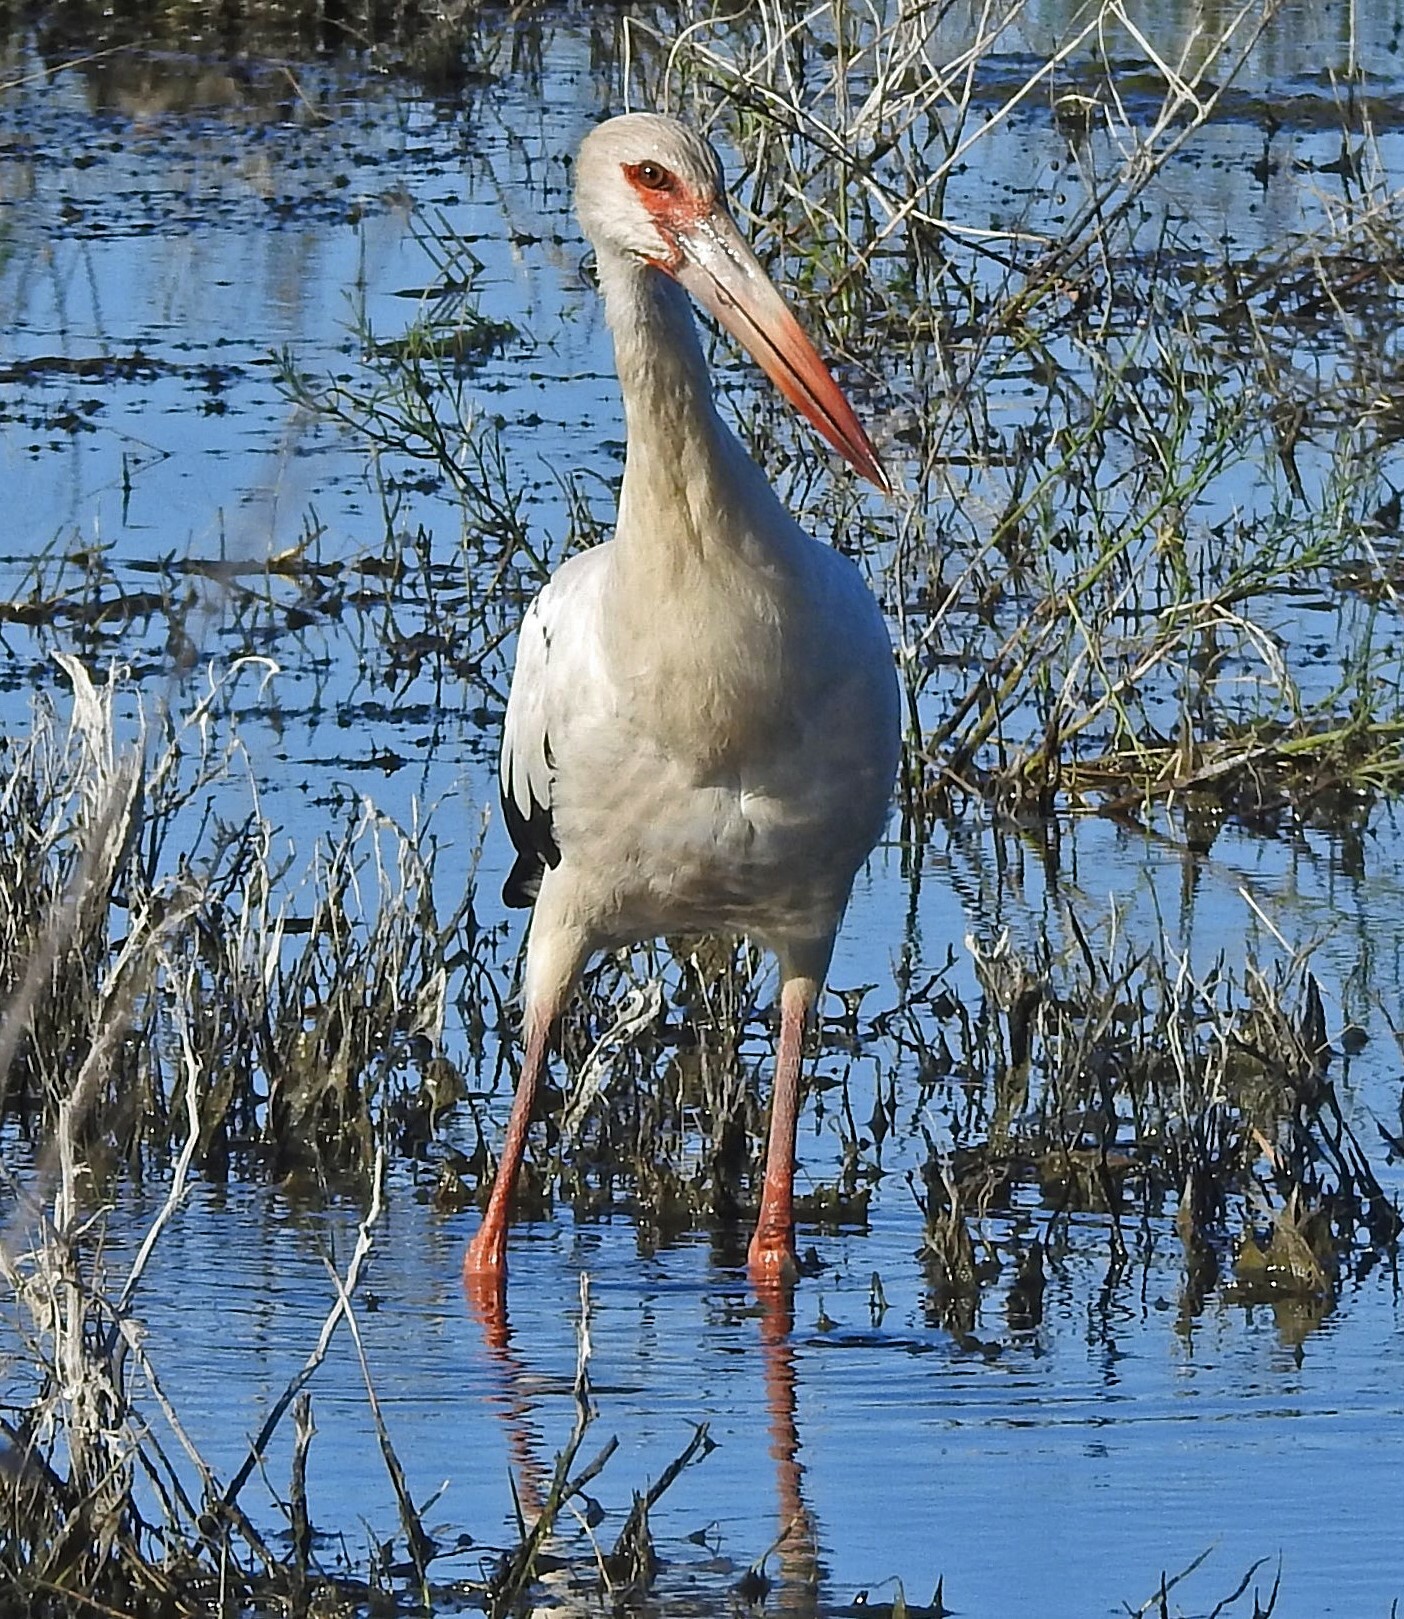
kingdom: Animalia
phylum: Chordata
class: Aves
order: Ciconiiformes
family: Ciconiidae
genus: Ciconia
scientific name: Ciconia maguari
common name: Maguari stork
